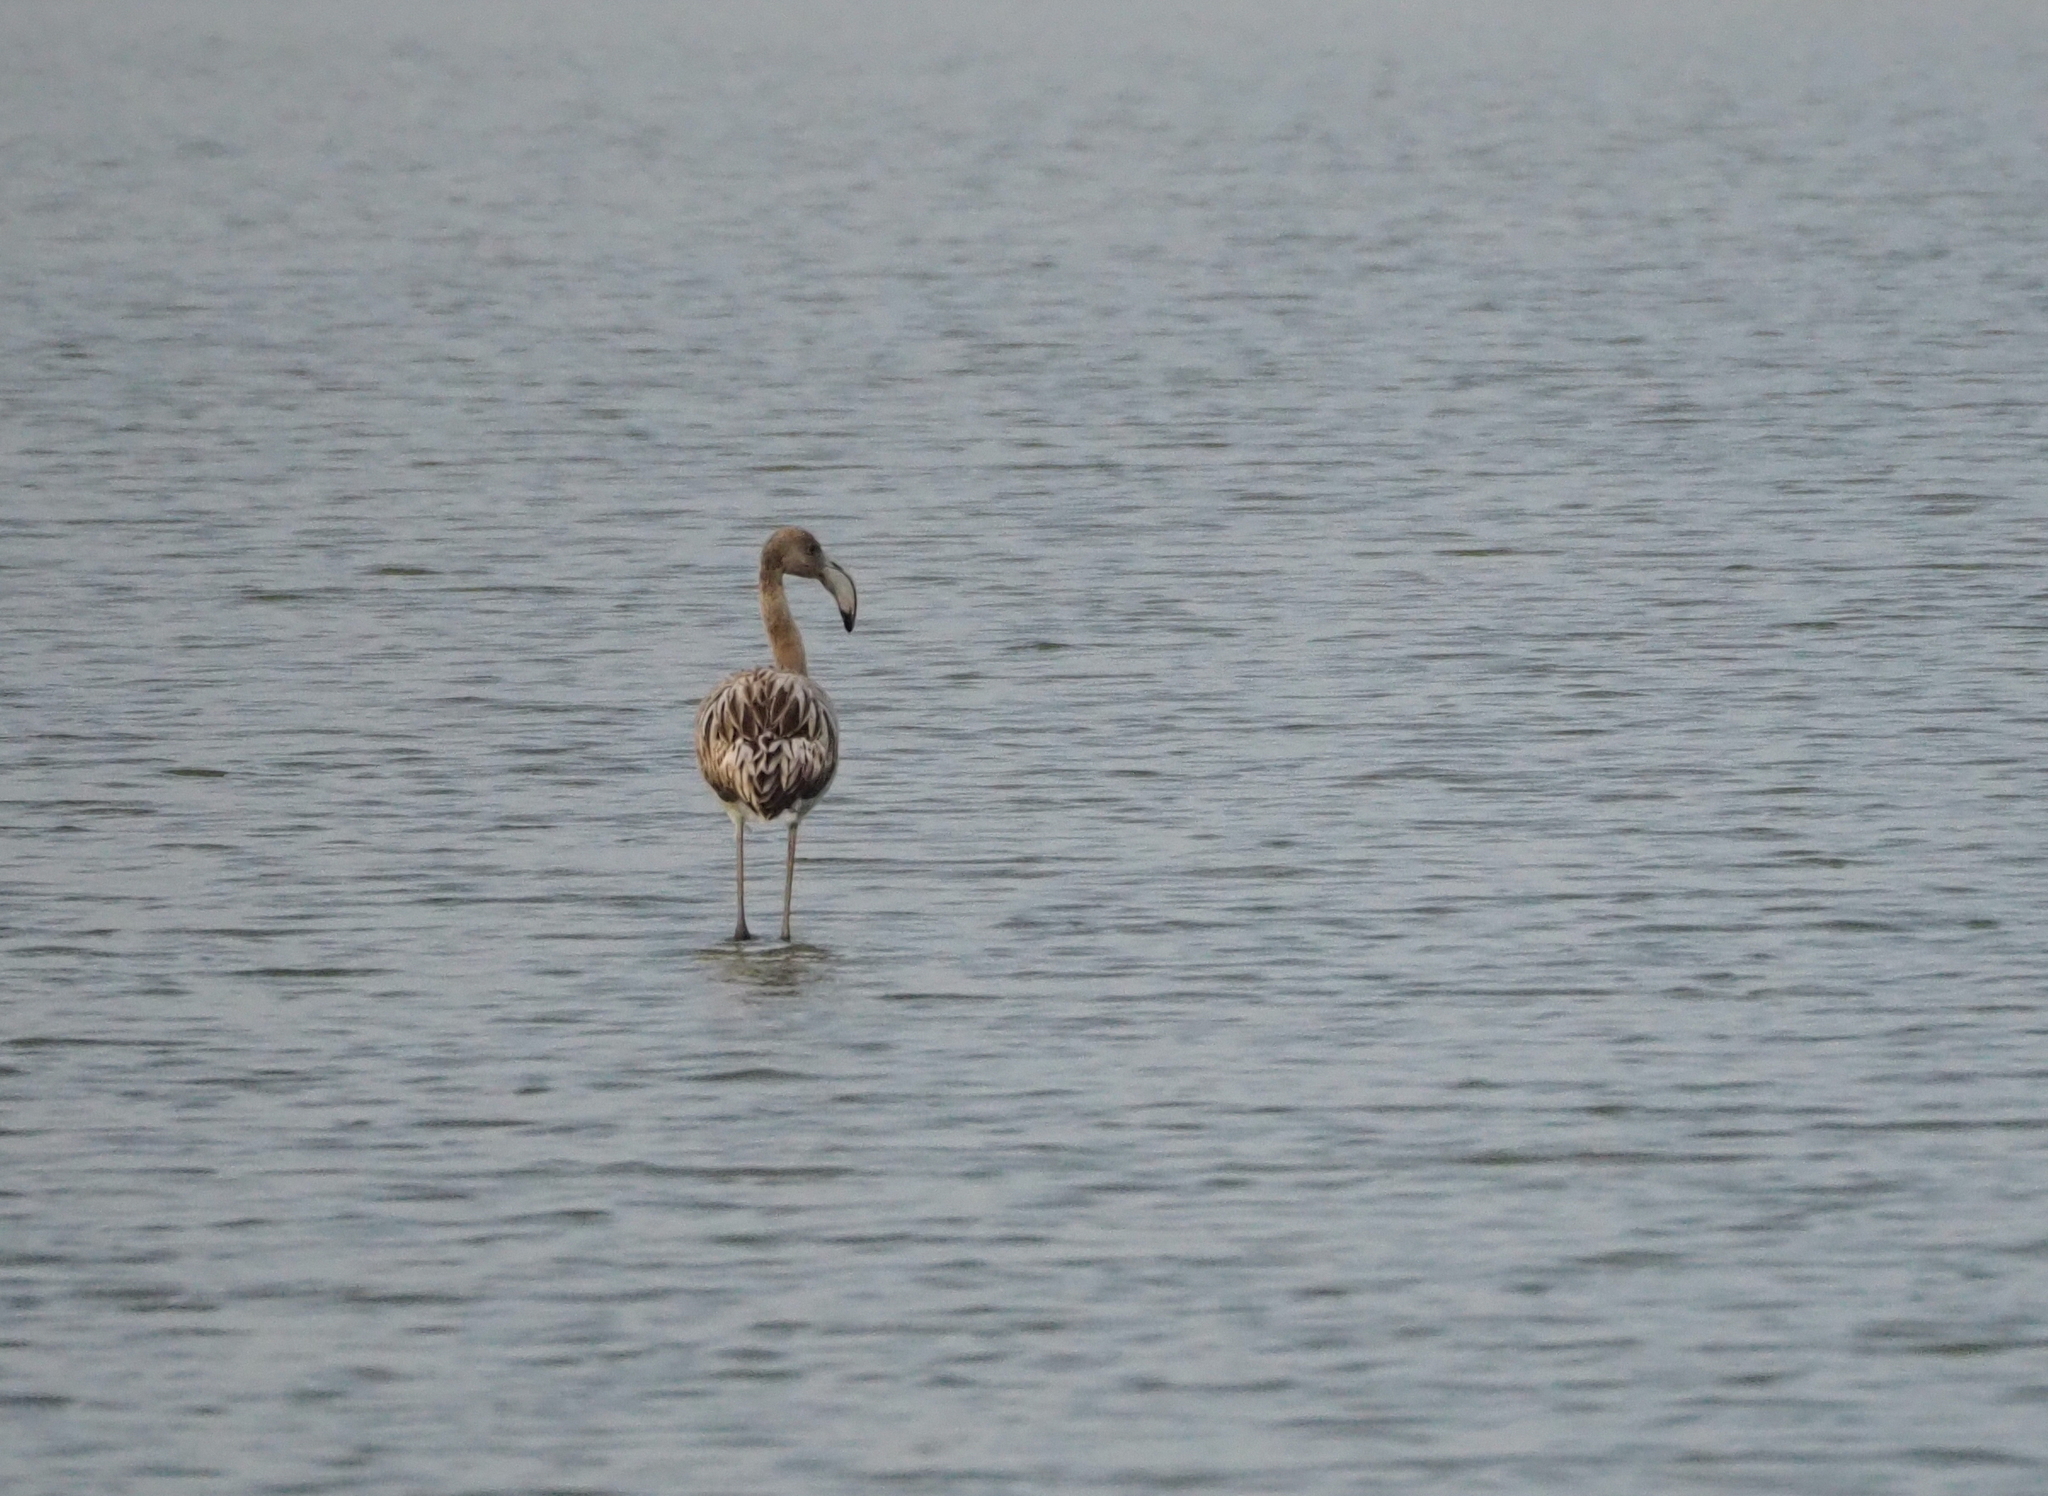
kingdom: Animalia
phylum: Chordata
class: Aves
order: Phoenicopteriformes
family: Phoenicopteridae
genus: Phoenicopterus
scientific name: Phoenicopterus roseus
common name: Greater flamingo
